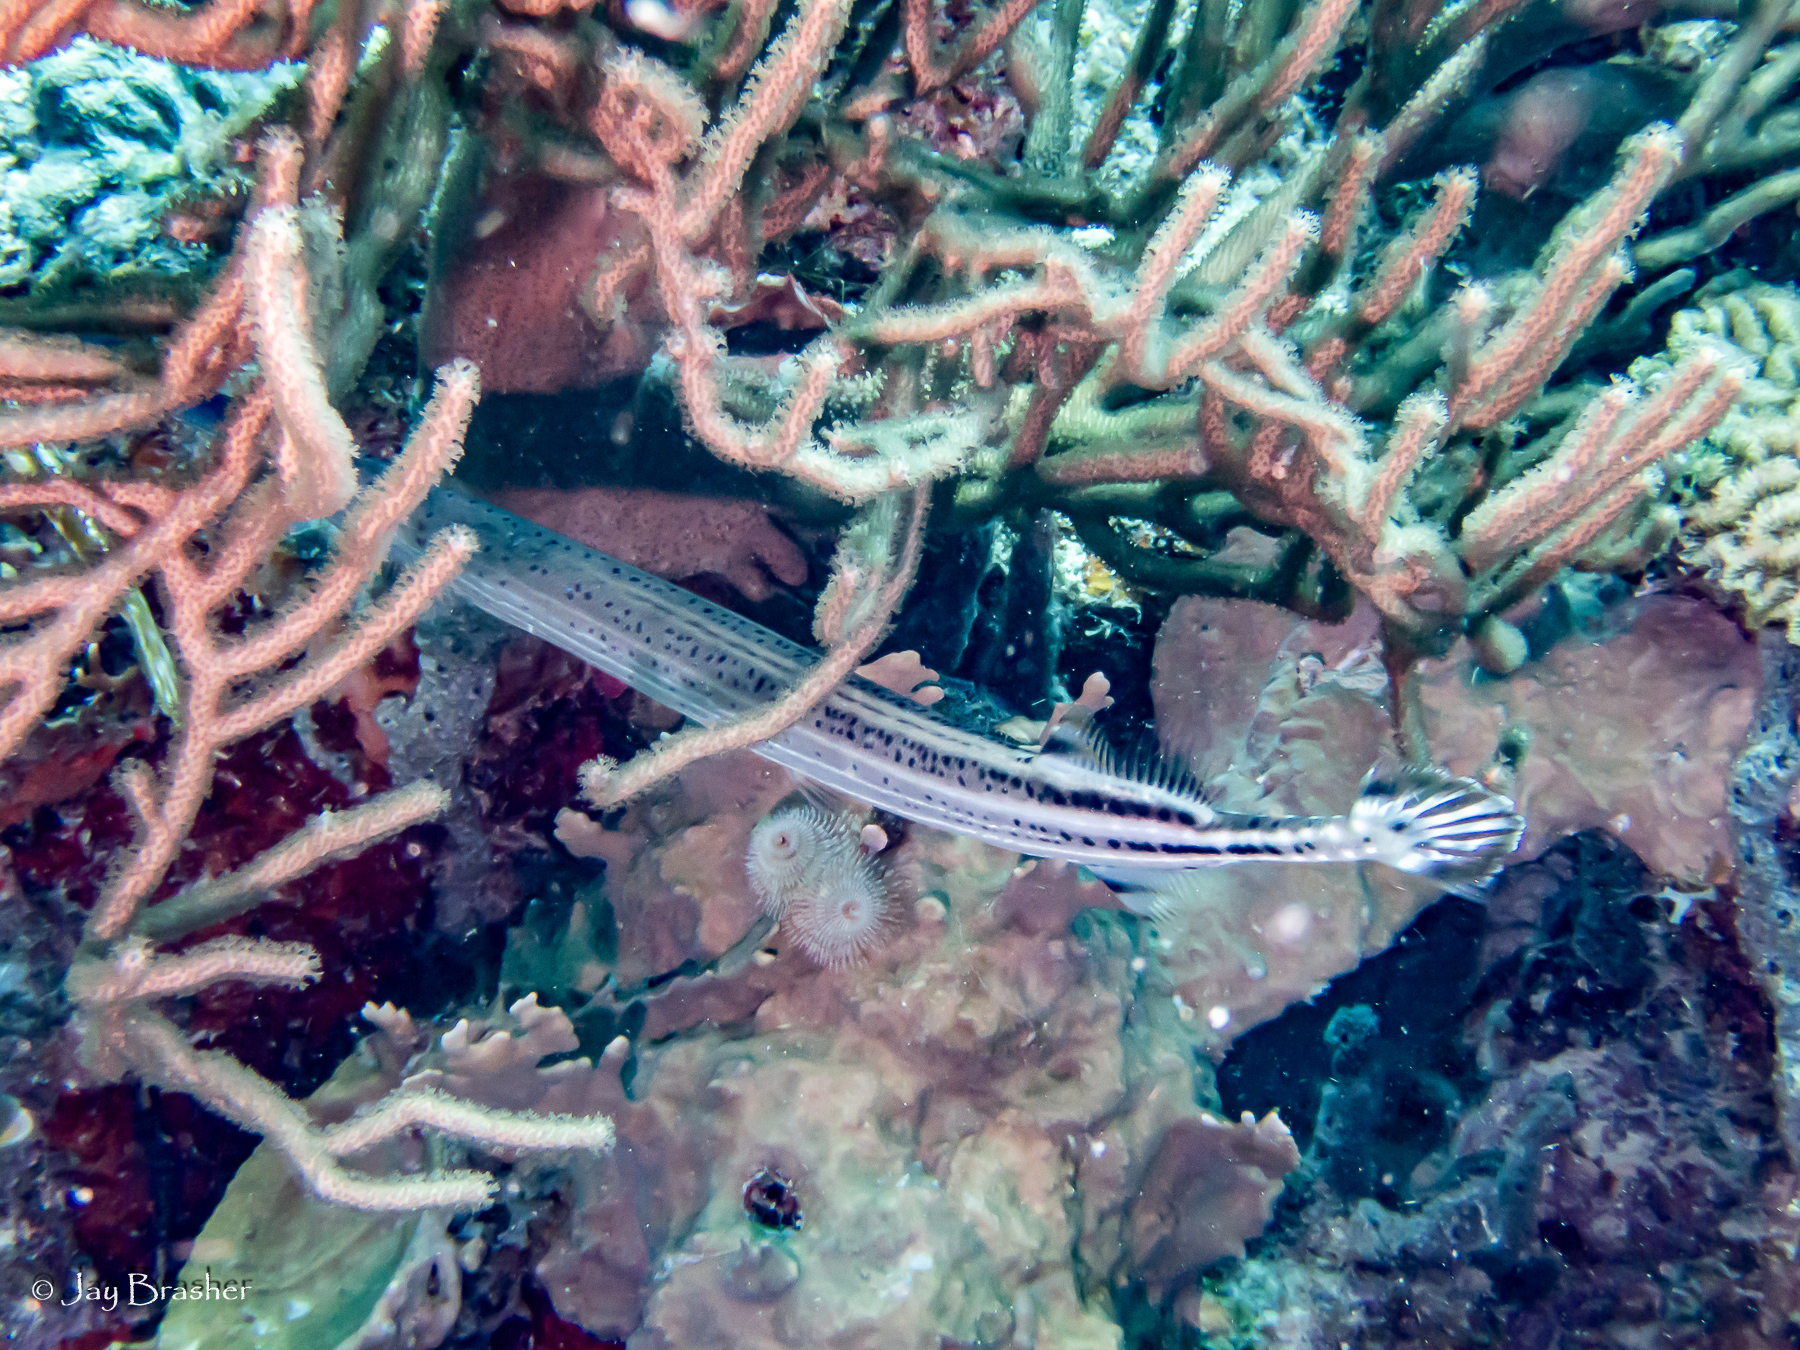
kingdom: Animalia
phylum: Chordata
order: Syngnathiformes
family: Aulostomidae
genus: Aulostomus
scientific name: Aulostomus maculatus
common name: West atlantic trumpetfish
